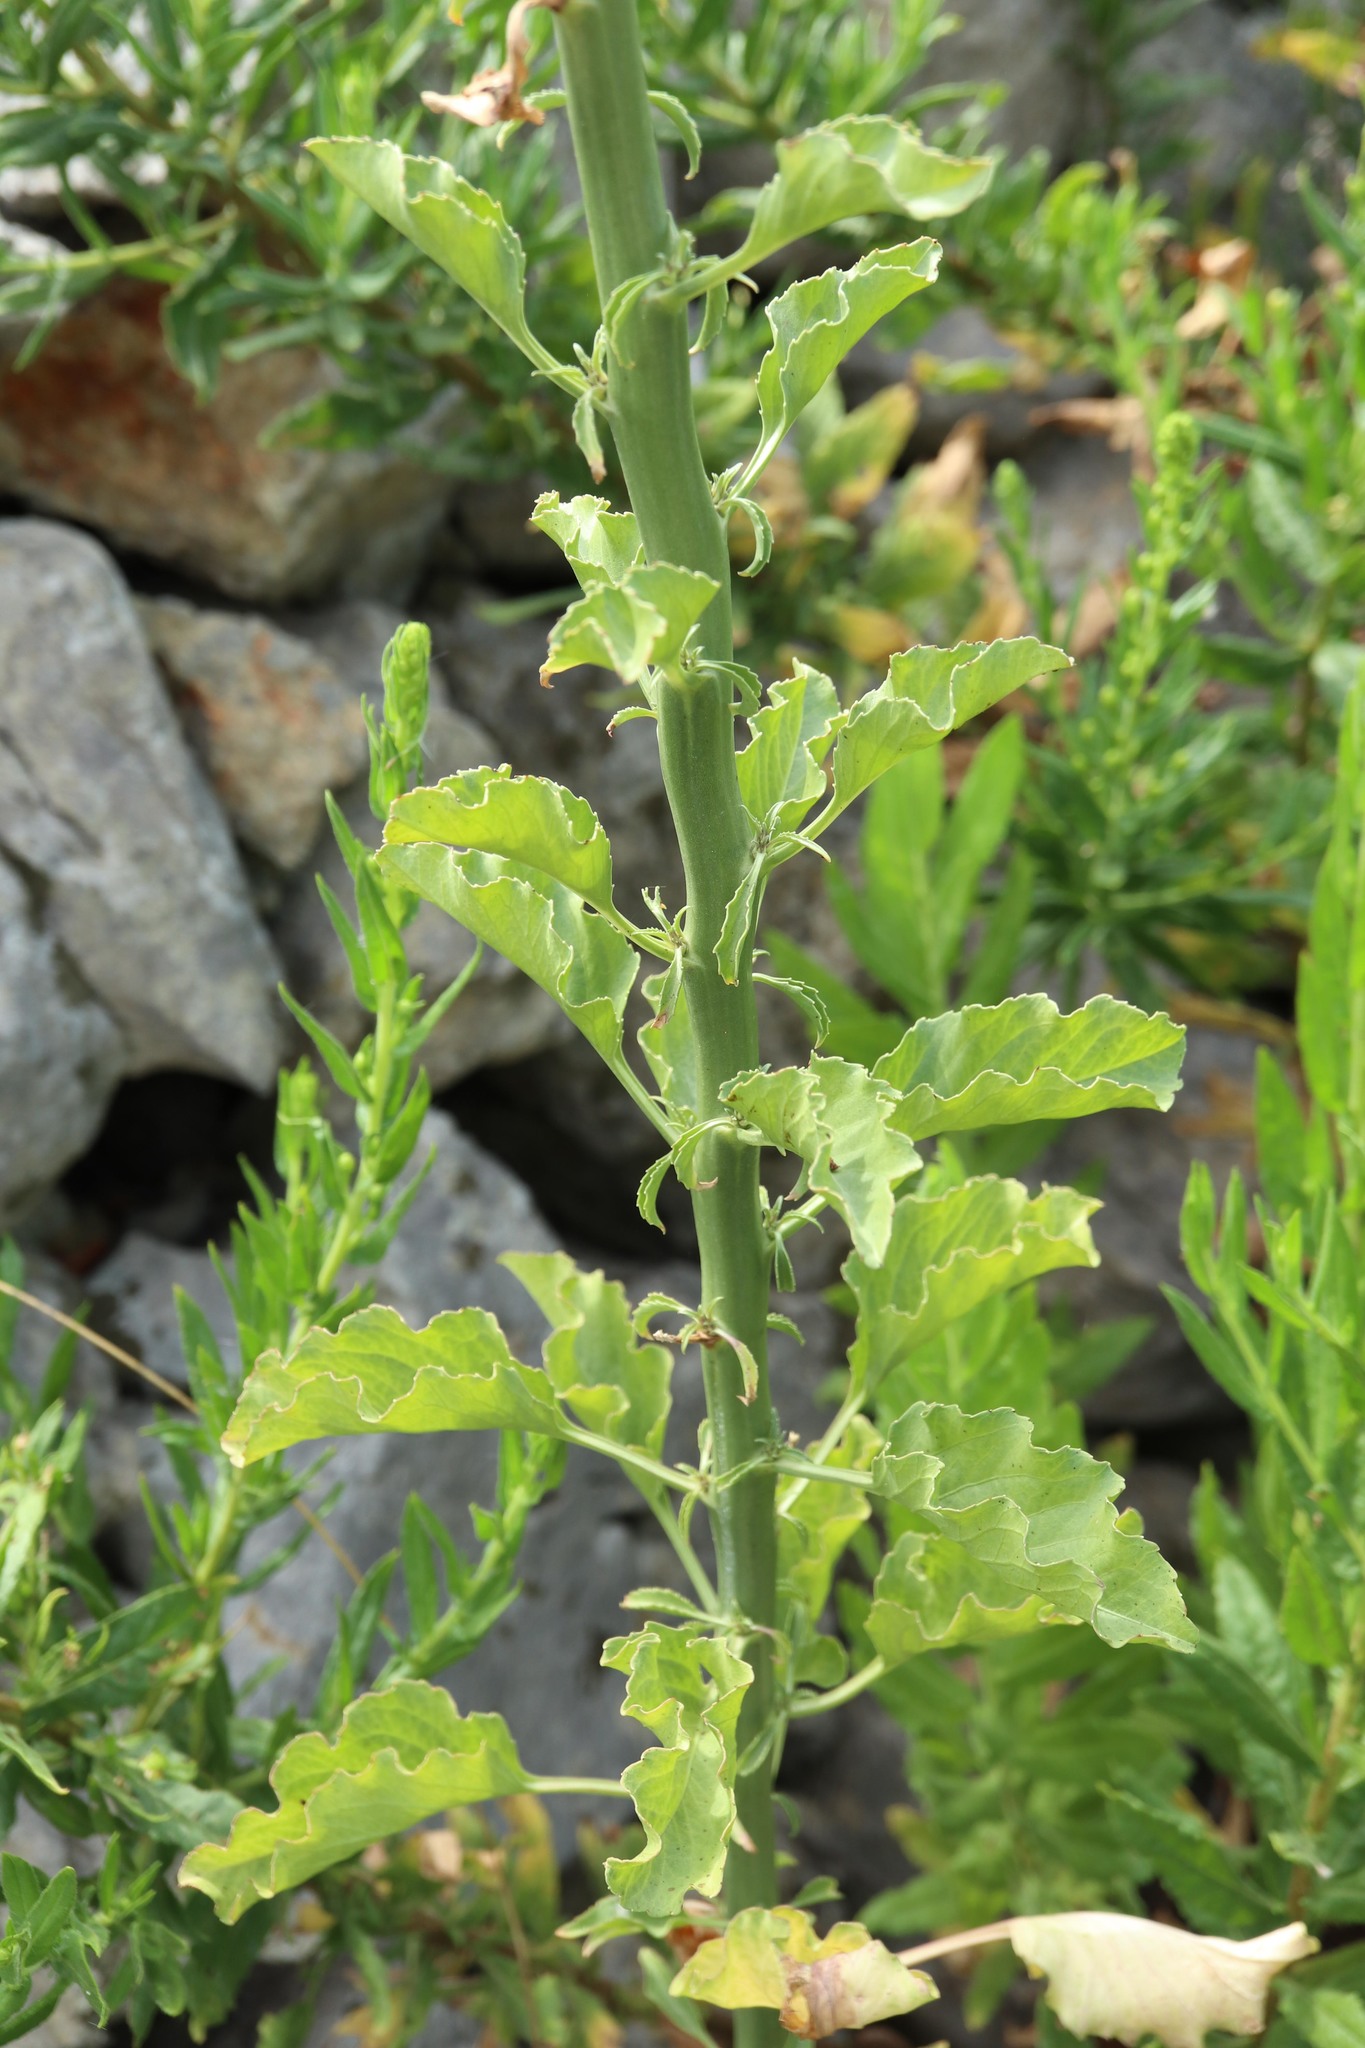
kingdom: Plantae
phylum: Tracheophyta
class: Magnoliopsida
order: Asterales
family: Campanulaceae
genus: Campanula
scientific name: Campanula pyramidalis
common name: Chimney bellflower
